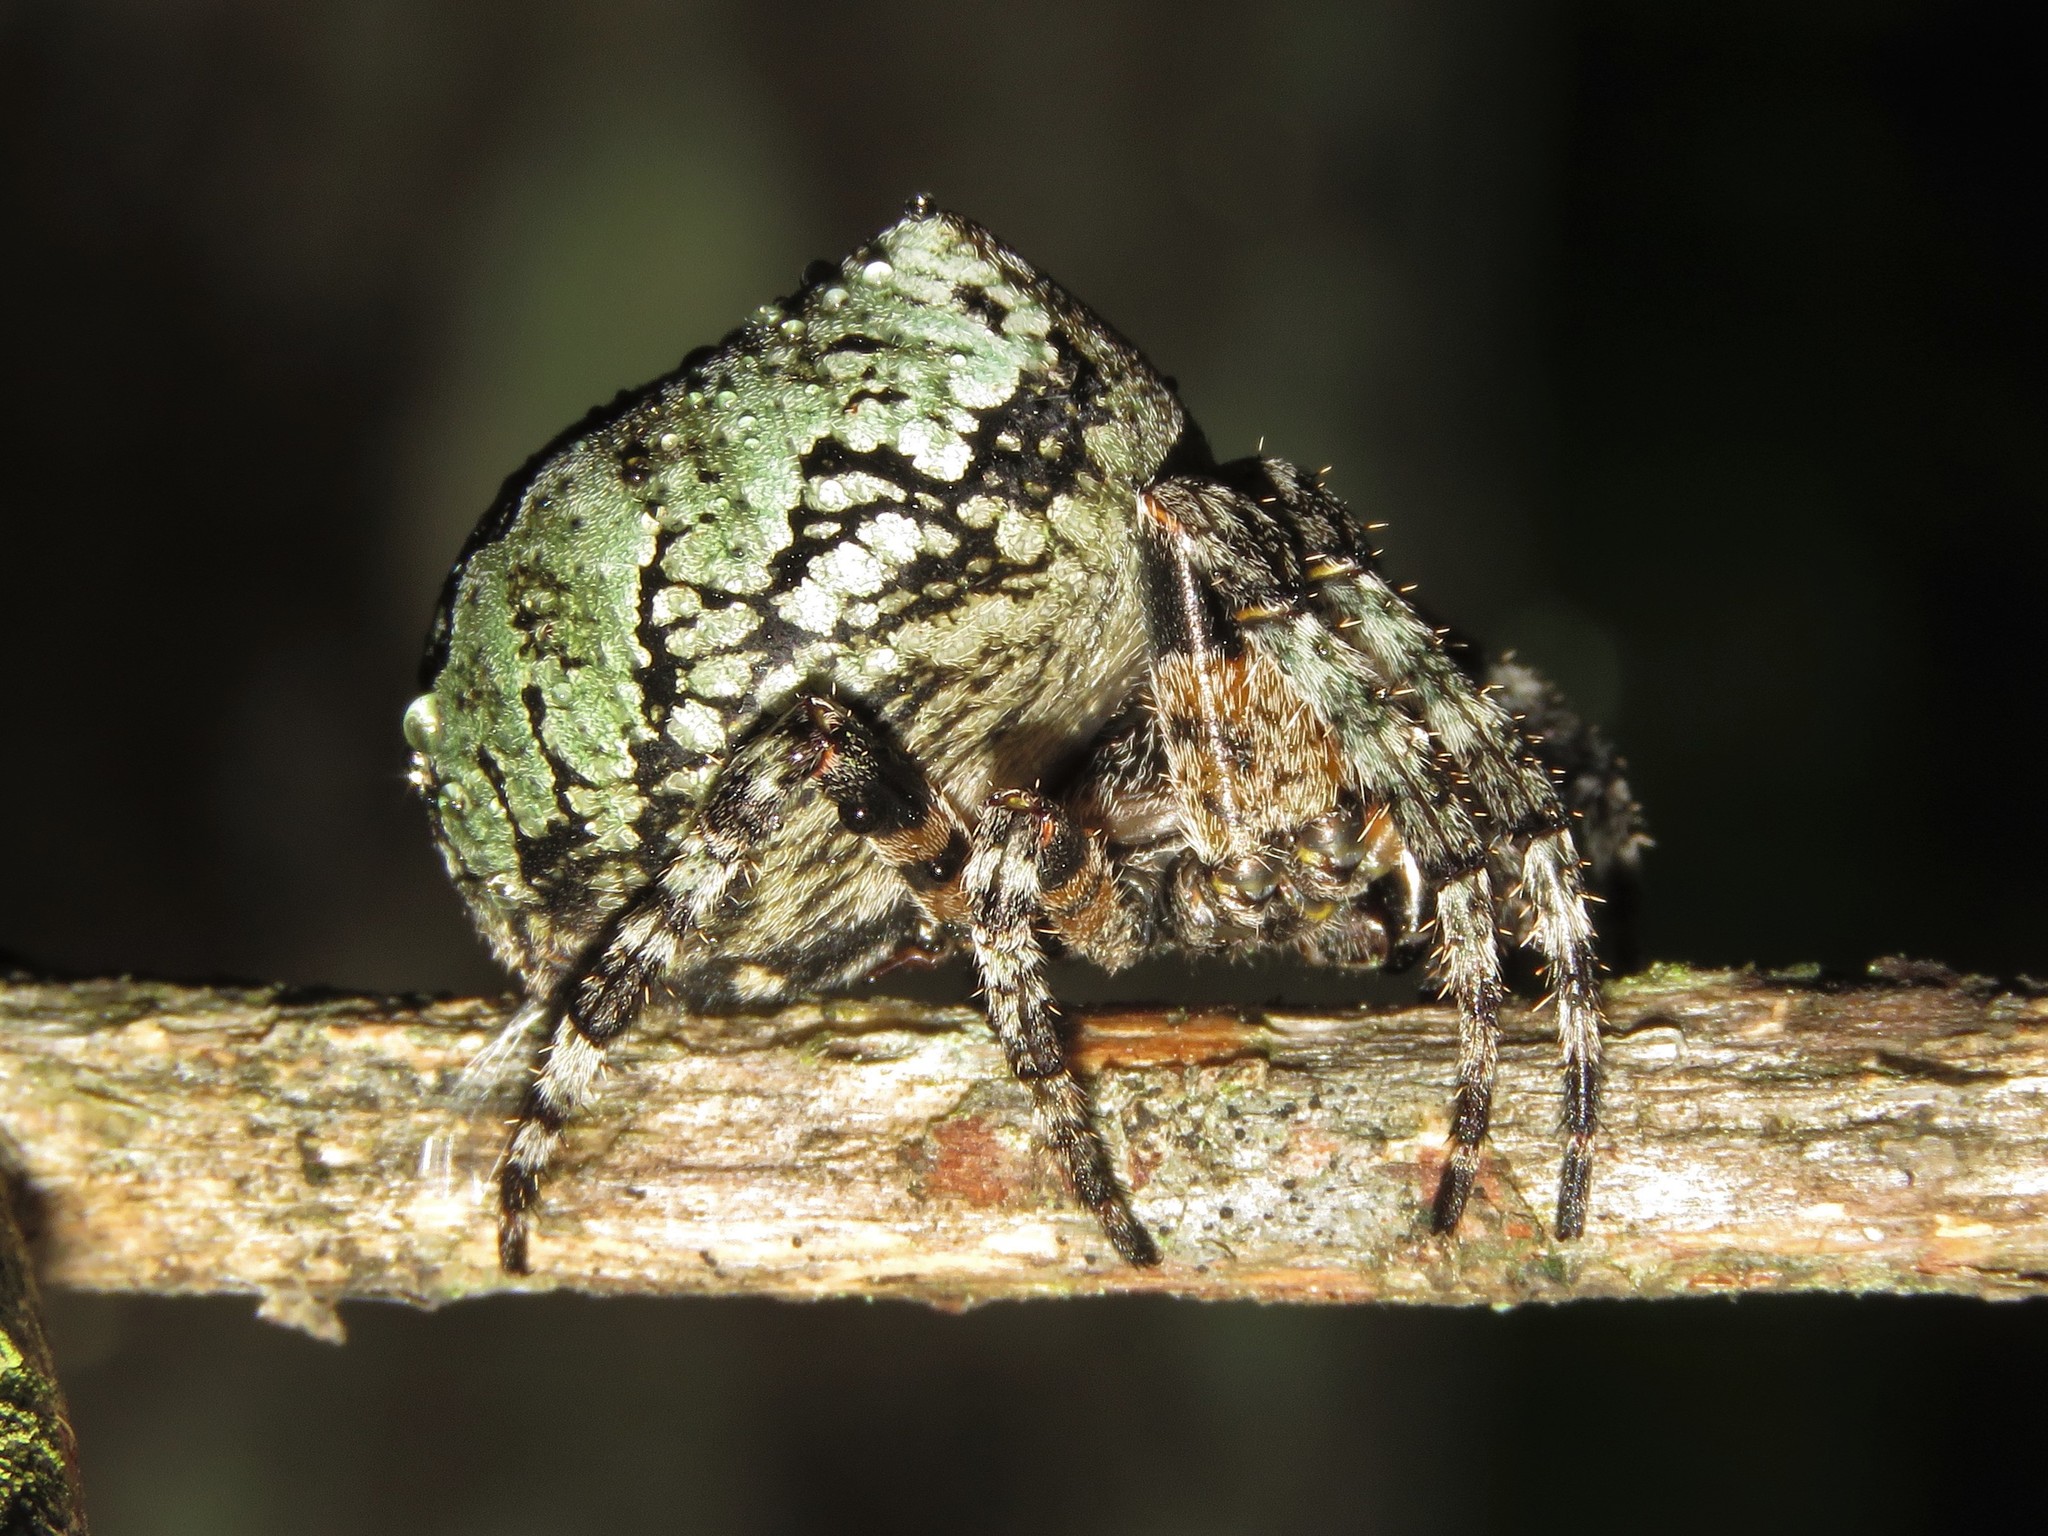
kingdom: Animalia
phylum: Arthropoda
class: Arachnida
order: Araneae
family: Araneidae
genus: Araneus
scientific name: Araneus bicentenarius
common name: Giant lichen orbweaver
